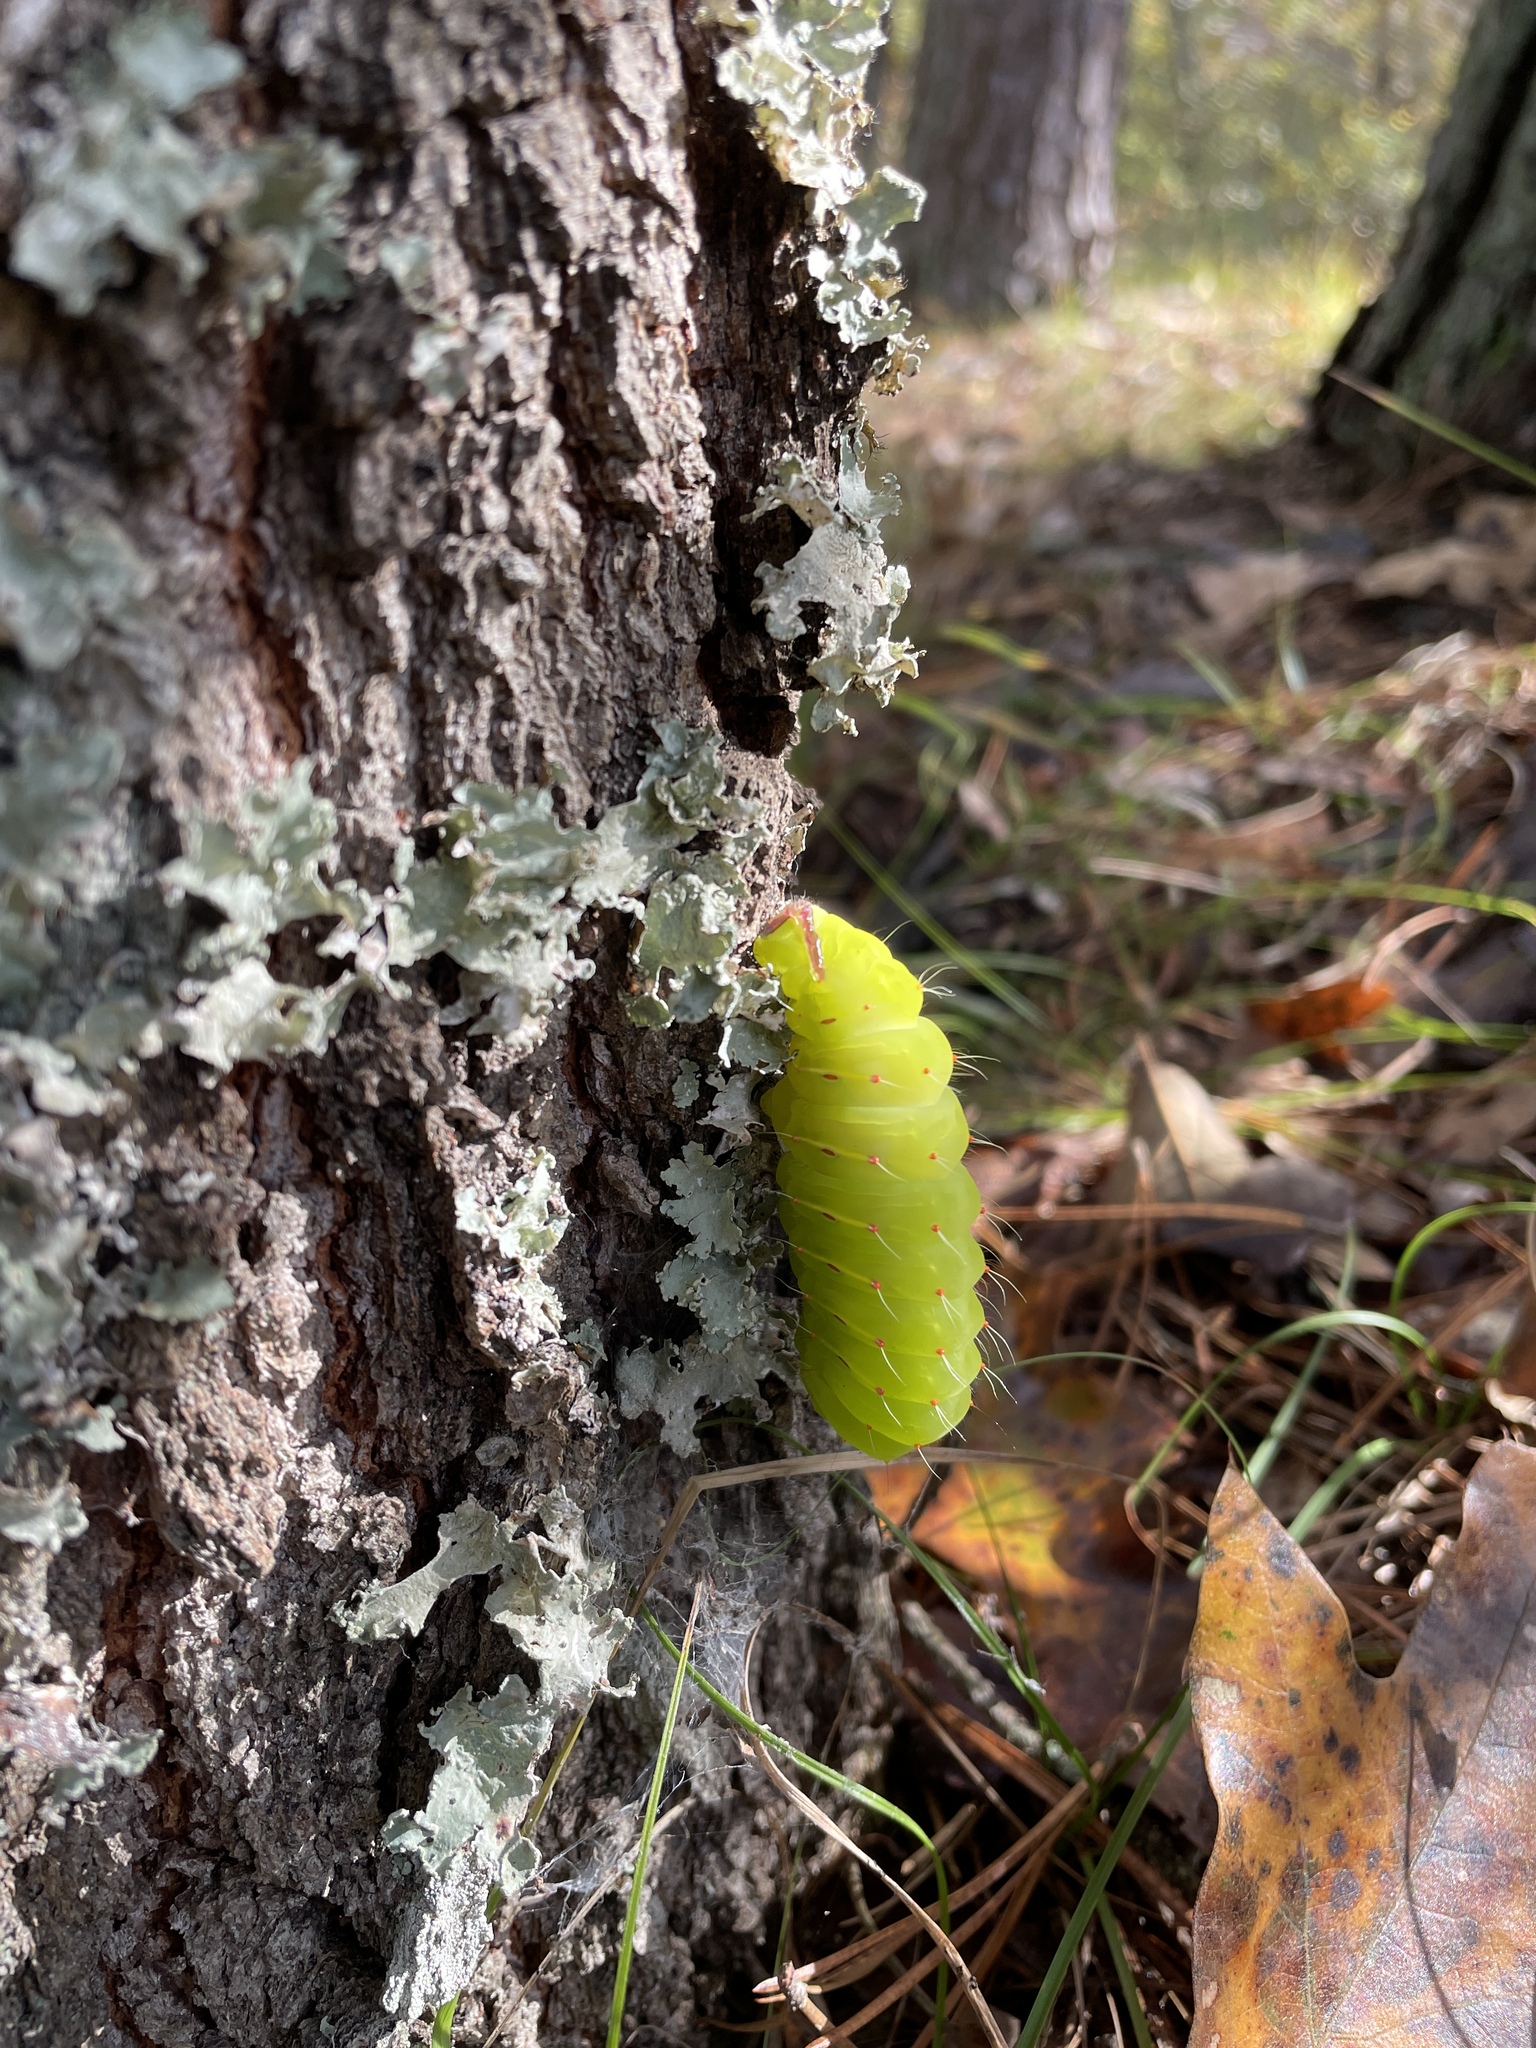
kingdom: Animalia
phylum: Arthropoda
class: Insecta
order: Lepidoptera
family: Saturniidae
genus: Antheraea
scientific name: Antheraea polyphemus
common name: Polyphemus moth
